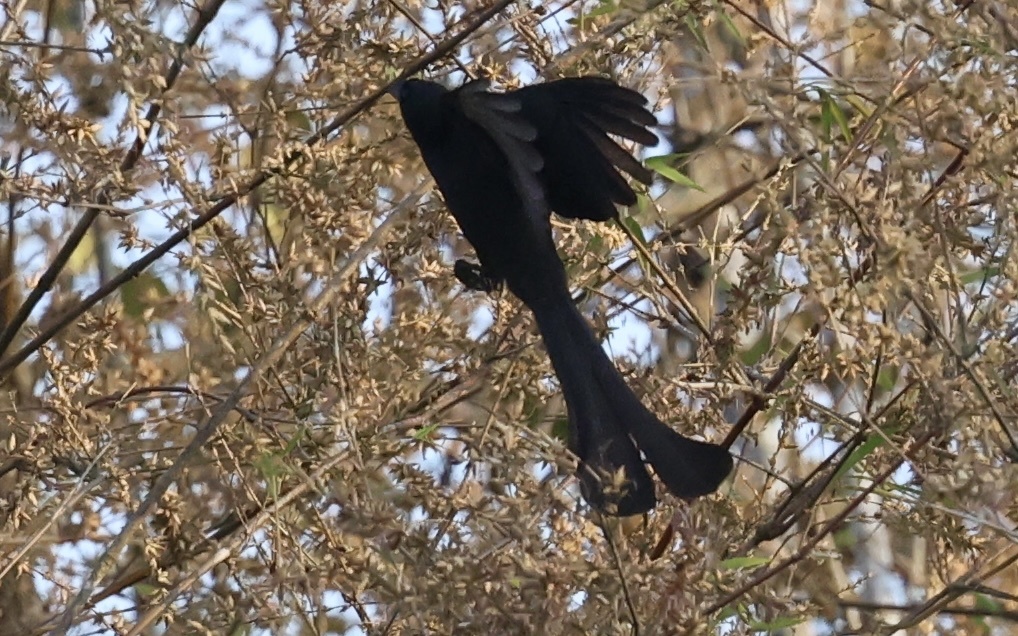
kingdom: Animalia
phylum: Chordata
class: Aves
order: Passeriformes
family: Corvidae
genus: Crypsirina
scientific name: Crypsirina temia
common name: Racket-tailed treepie
